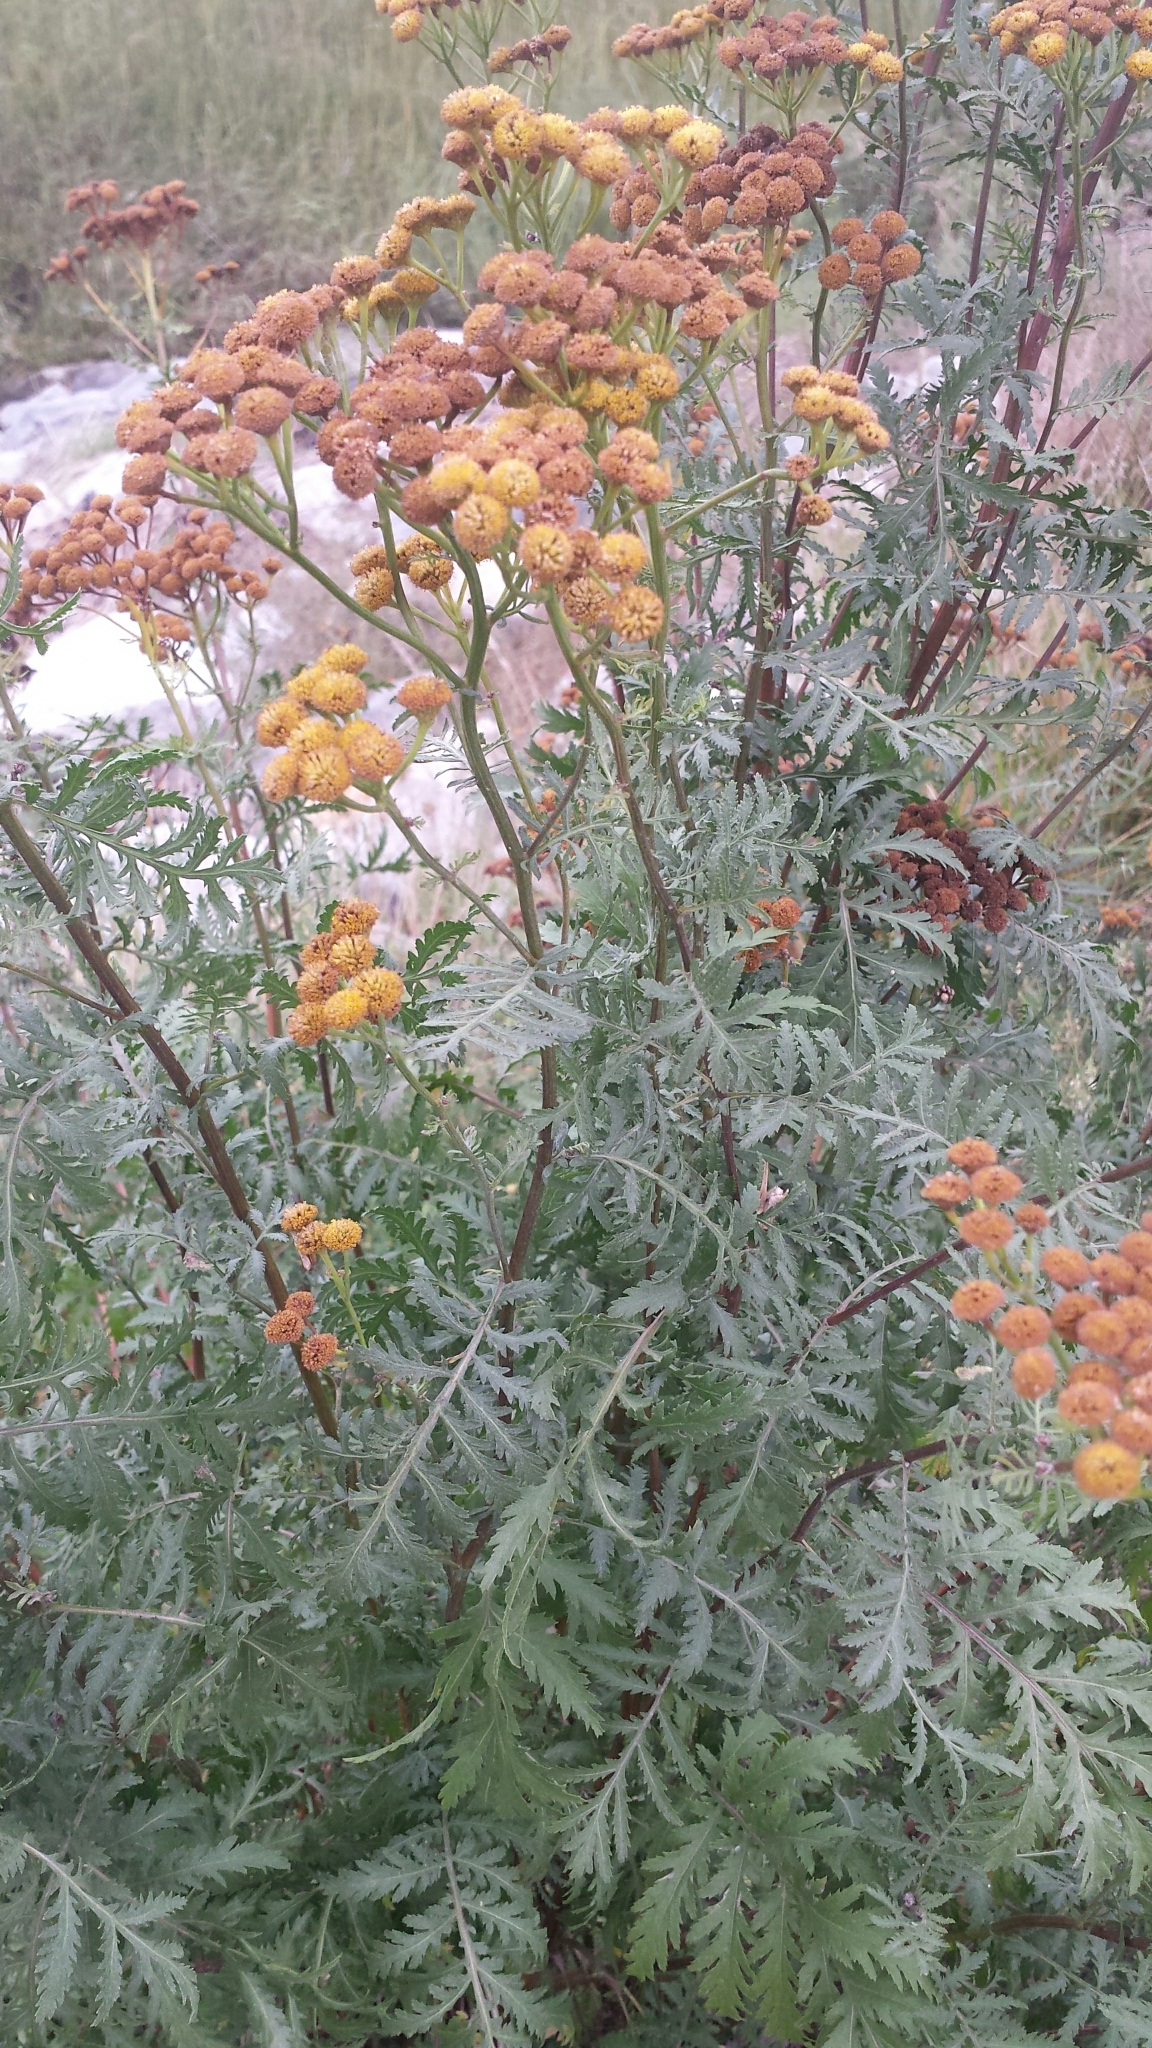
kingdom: Plantae
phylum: Tracheophyta
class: Magnoliopsida
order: Asterales
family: Asteraceae
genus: Tanacetum
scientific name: Tanacetum vulgare
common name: Common tansy
